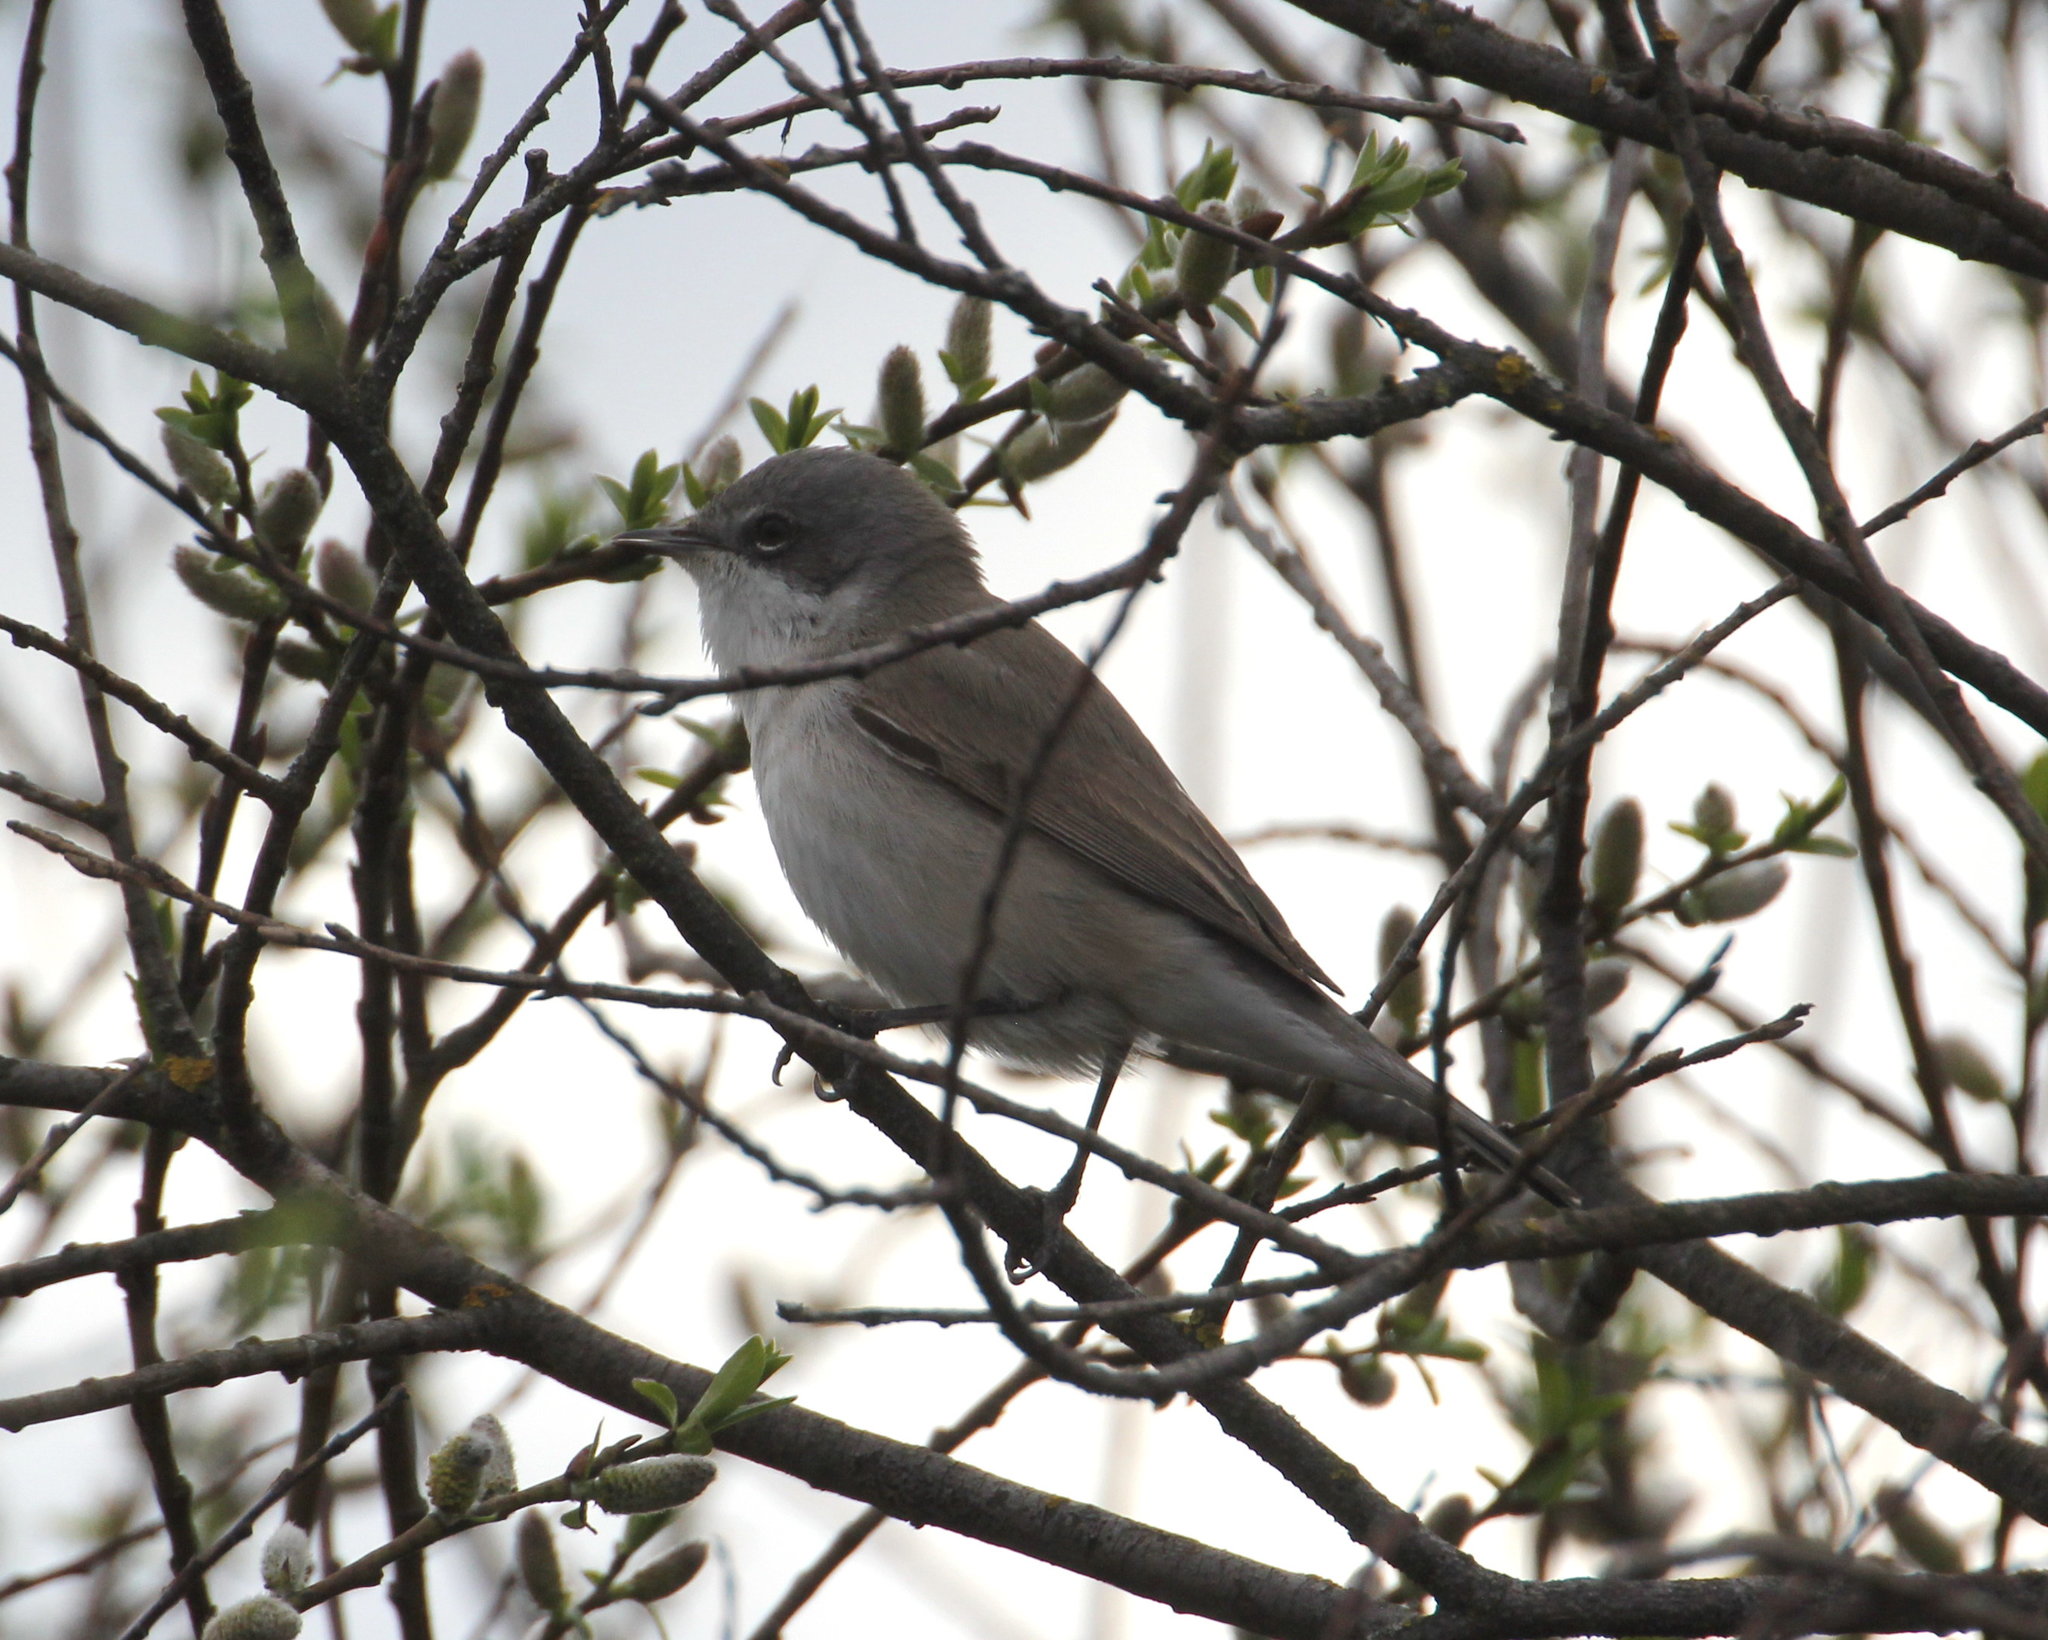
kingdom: Animalia
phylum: Chordata
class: Aves
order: Passeriformes
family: Sylviidae
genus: Sylvia
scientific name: Sylvia curruca
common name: Lesser whitethroat
